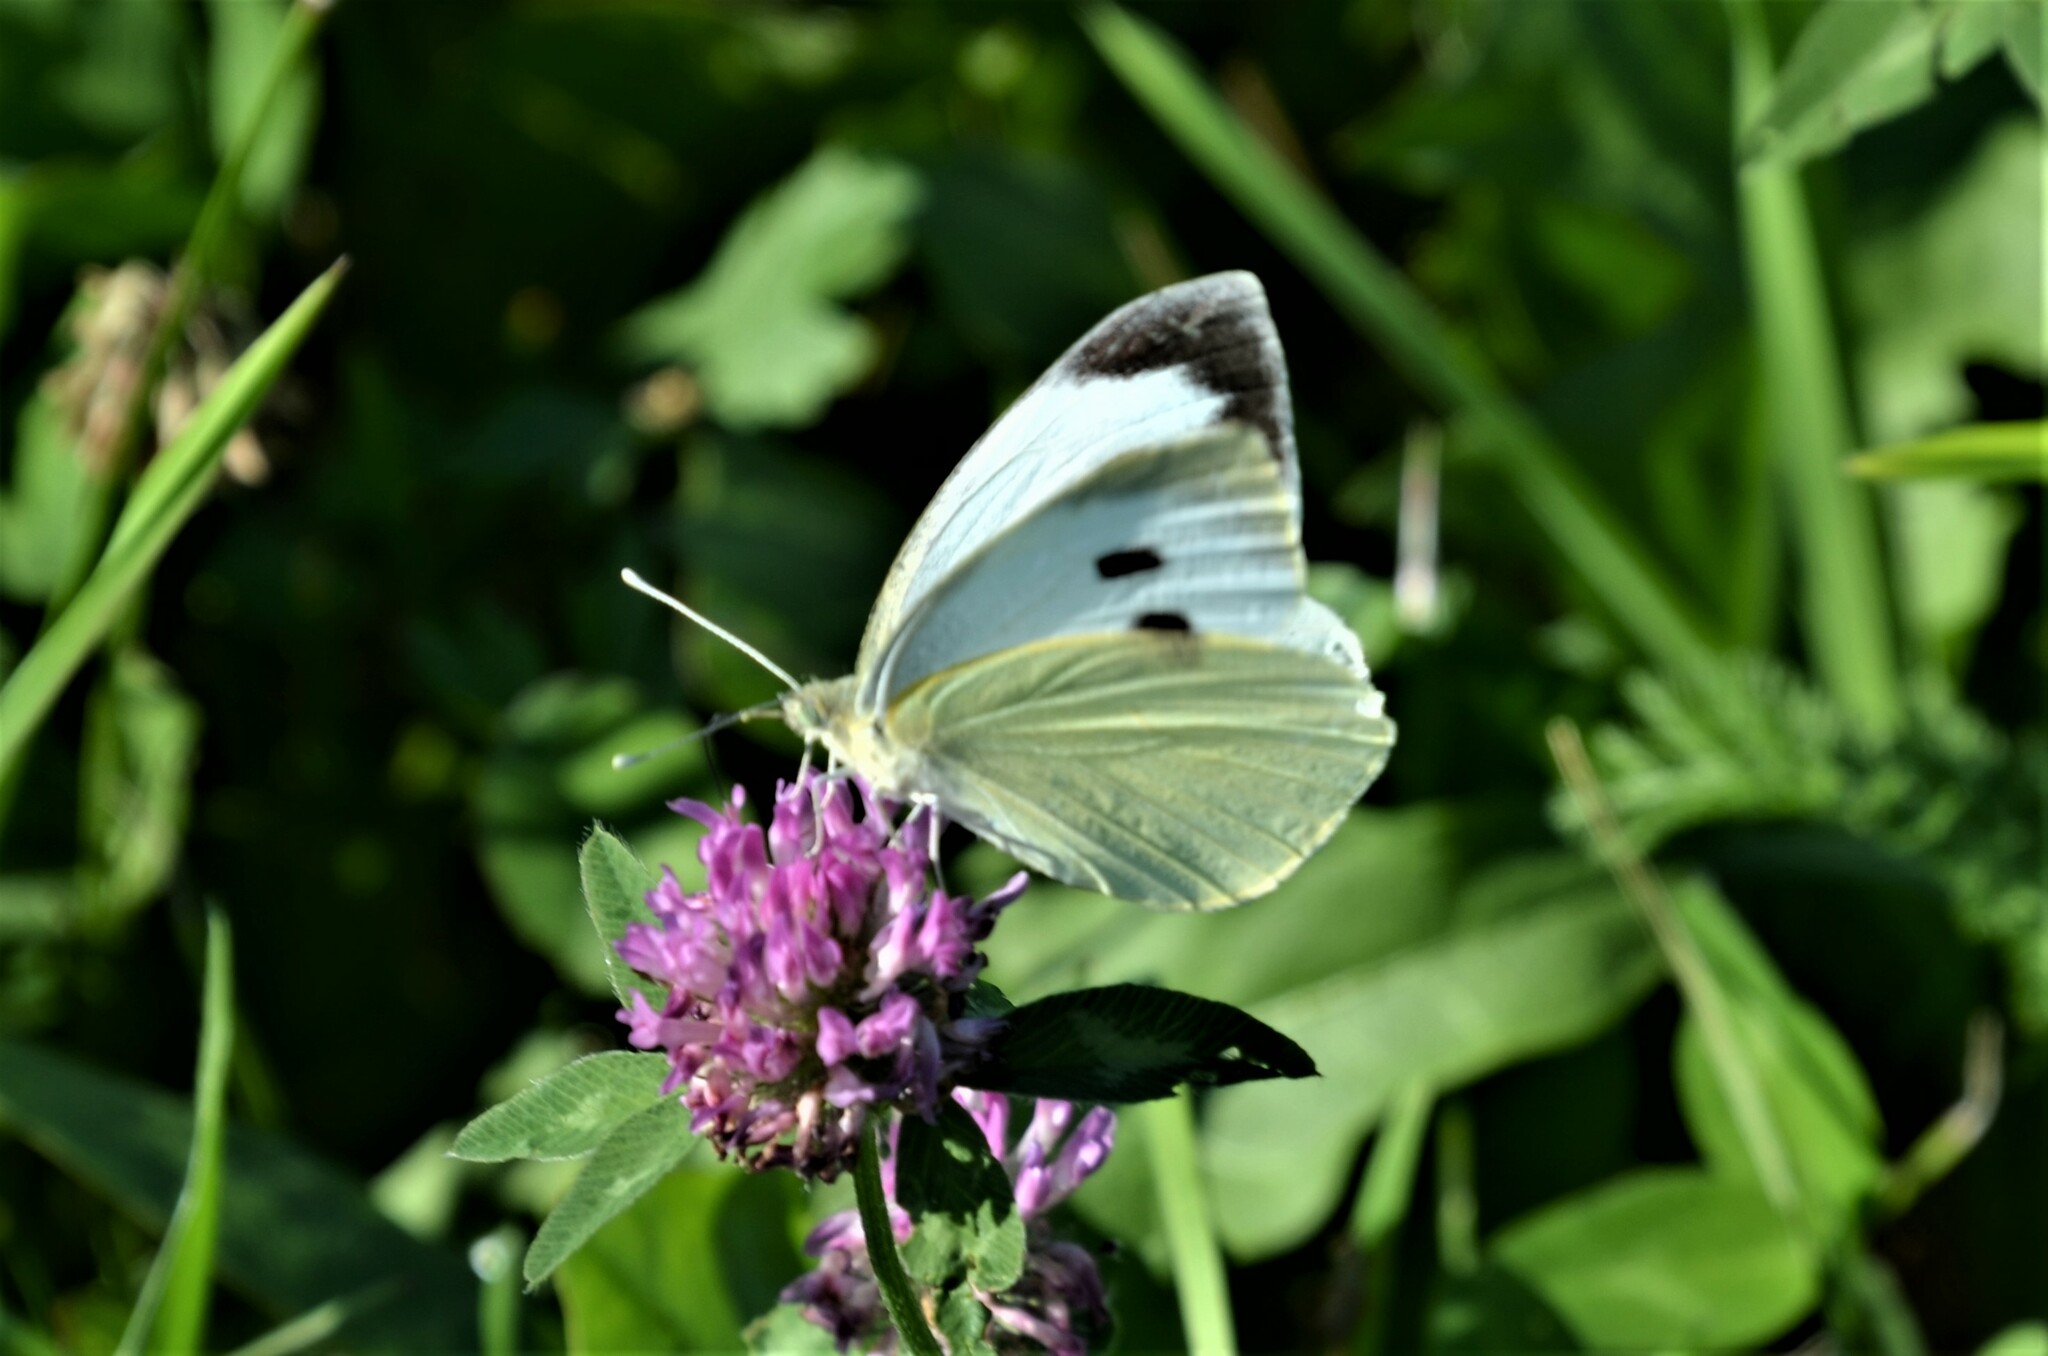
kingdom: Animalia
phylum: Arthropoda
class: Insecta
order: Lepidoptera
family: Pieridae
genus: Pieris
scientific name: Pieris brassicae
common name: Large white
